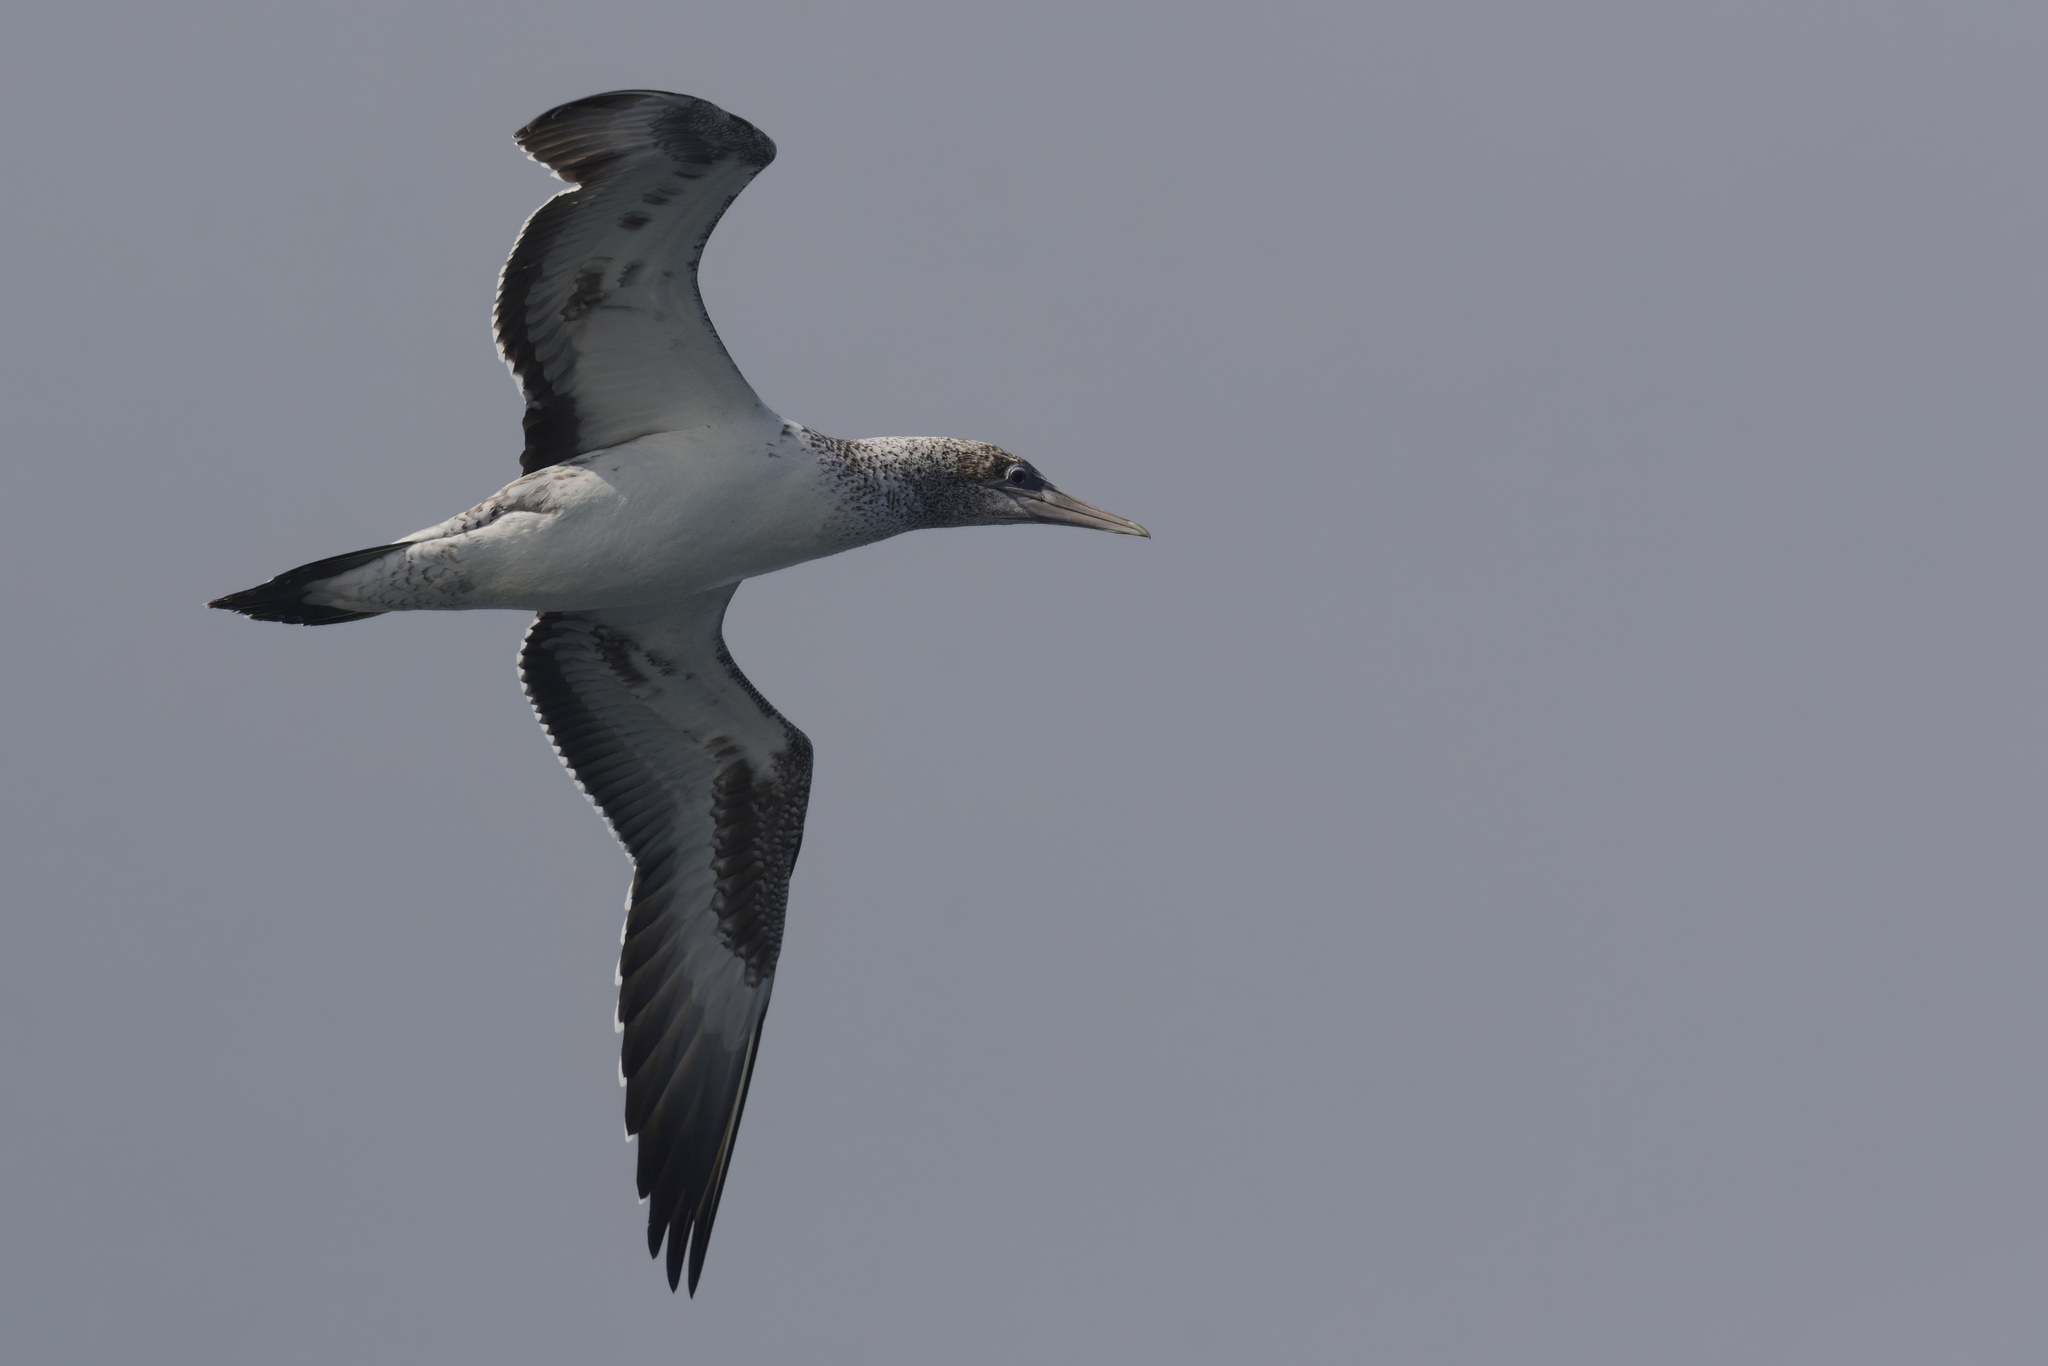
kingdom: Animalia
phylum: Chordata
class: Aves
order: Suliformes
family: Sulidae
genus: Morus
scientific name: Morus serrator
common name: Australasian gannet
